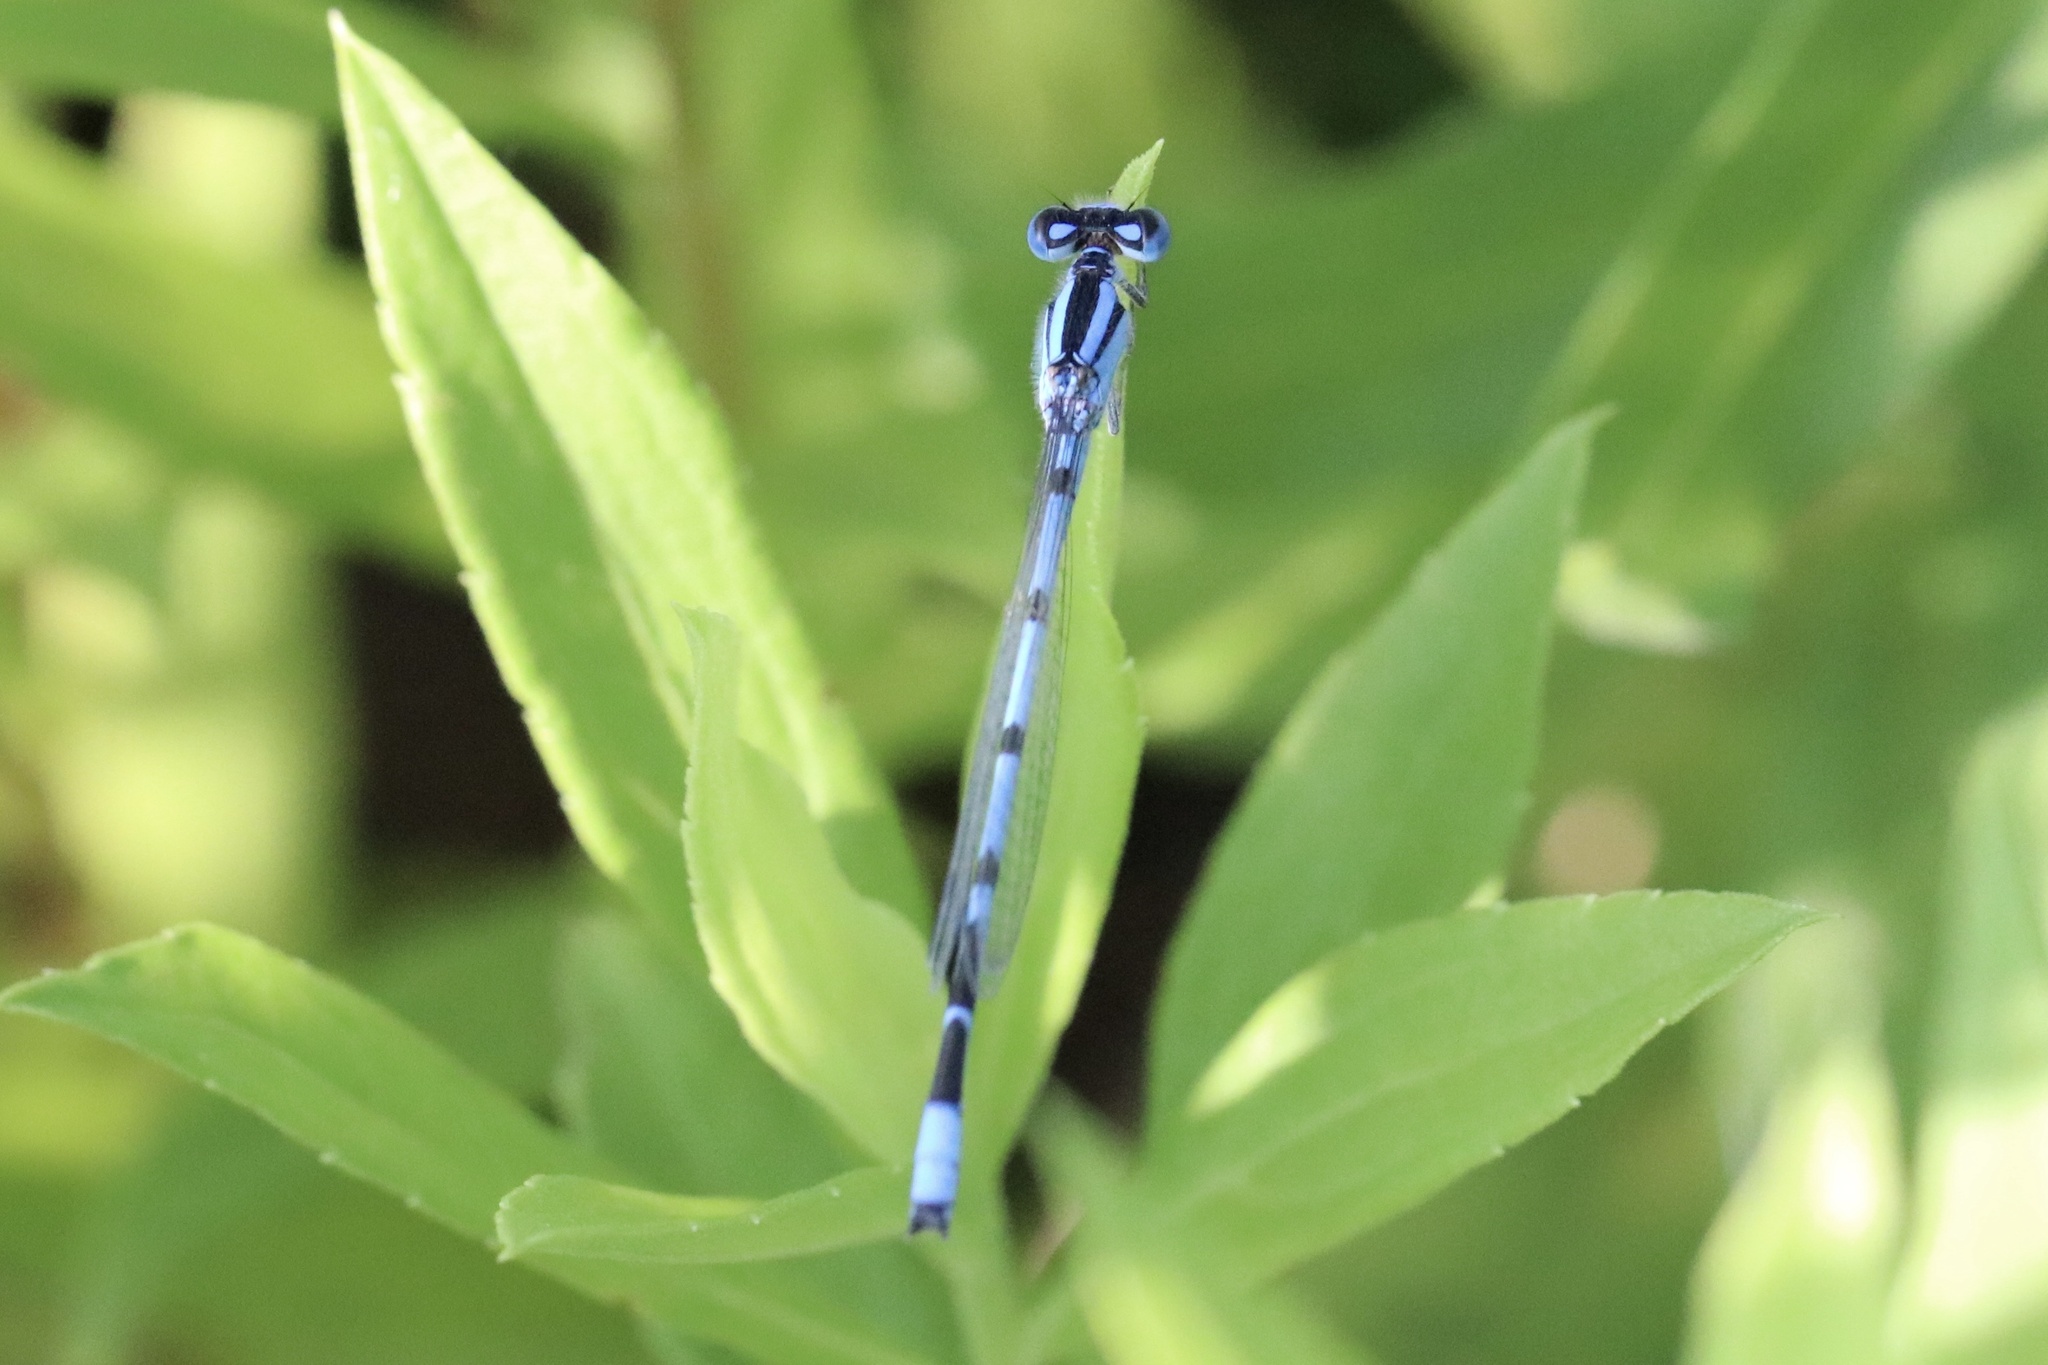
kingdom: Animalia
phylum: Arthropoda
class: Insecta
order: Odonata
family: Coenagrionidae
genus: Enallagma
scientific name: Enallagma civile
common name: Damselfly
